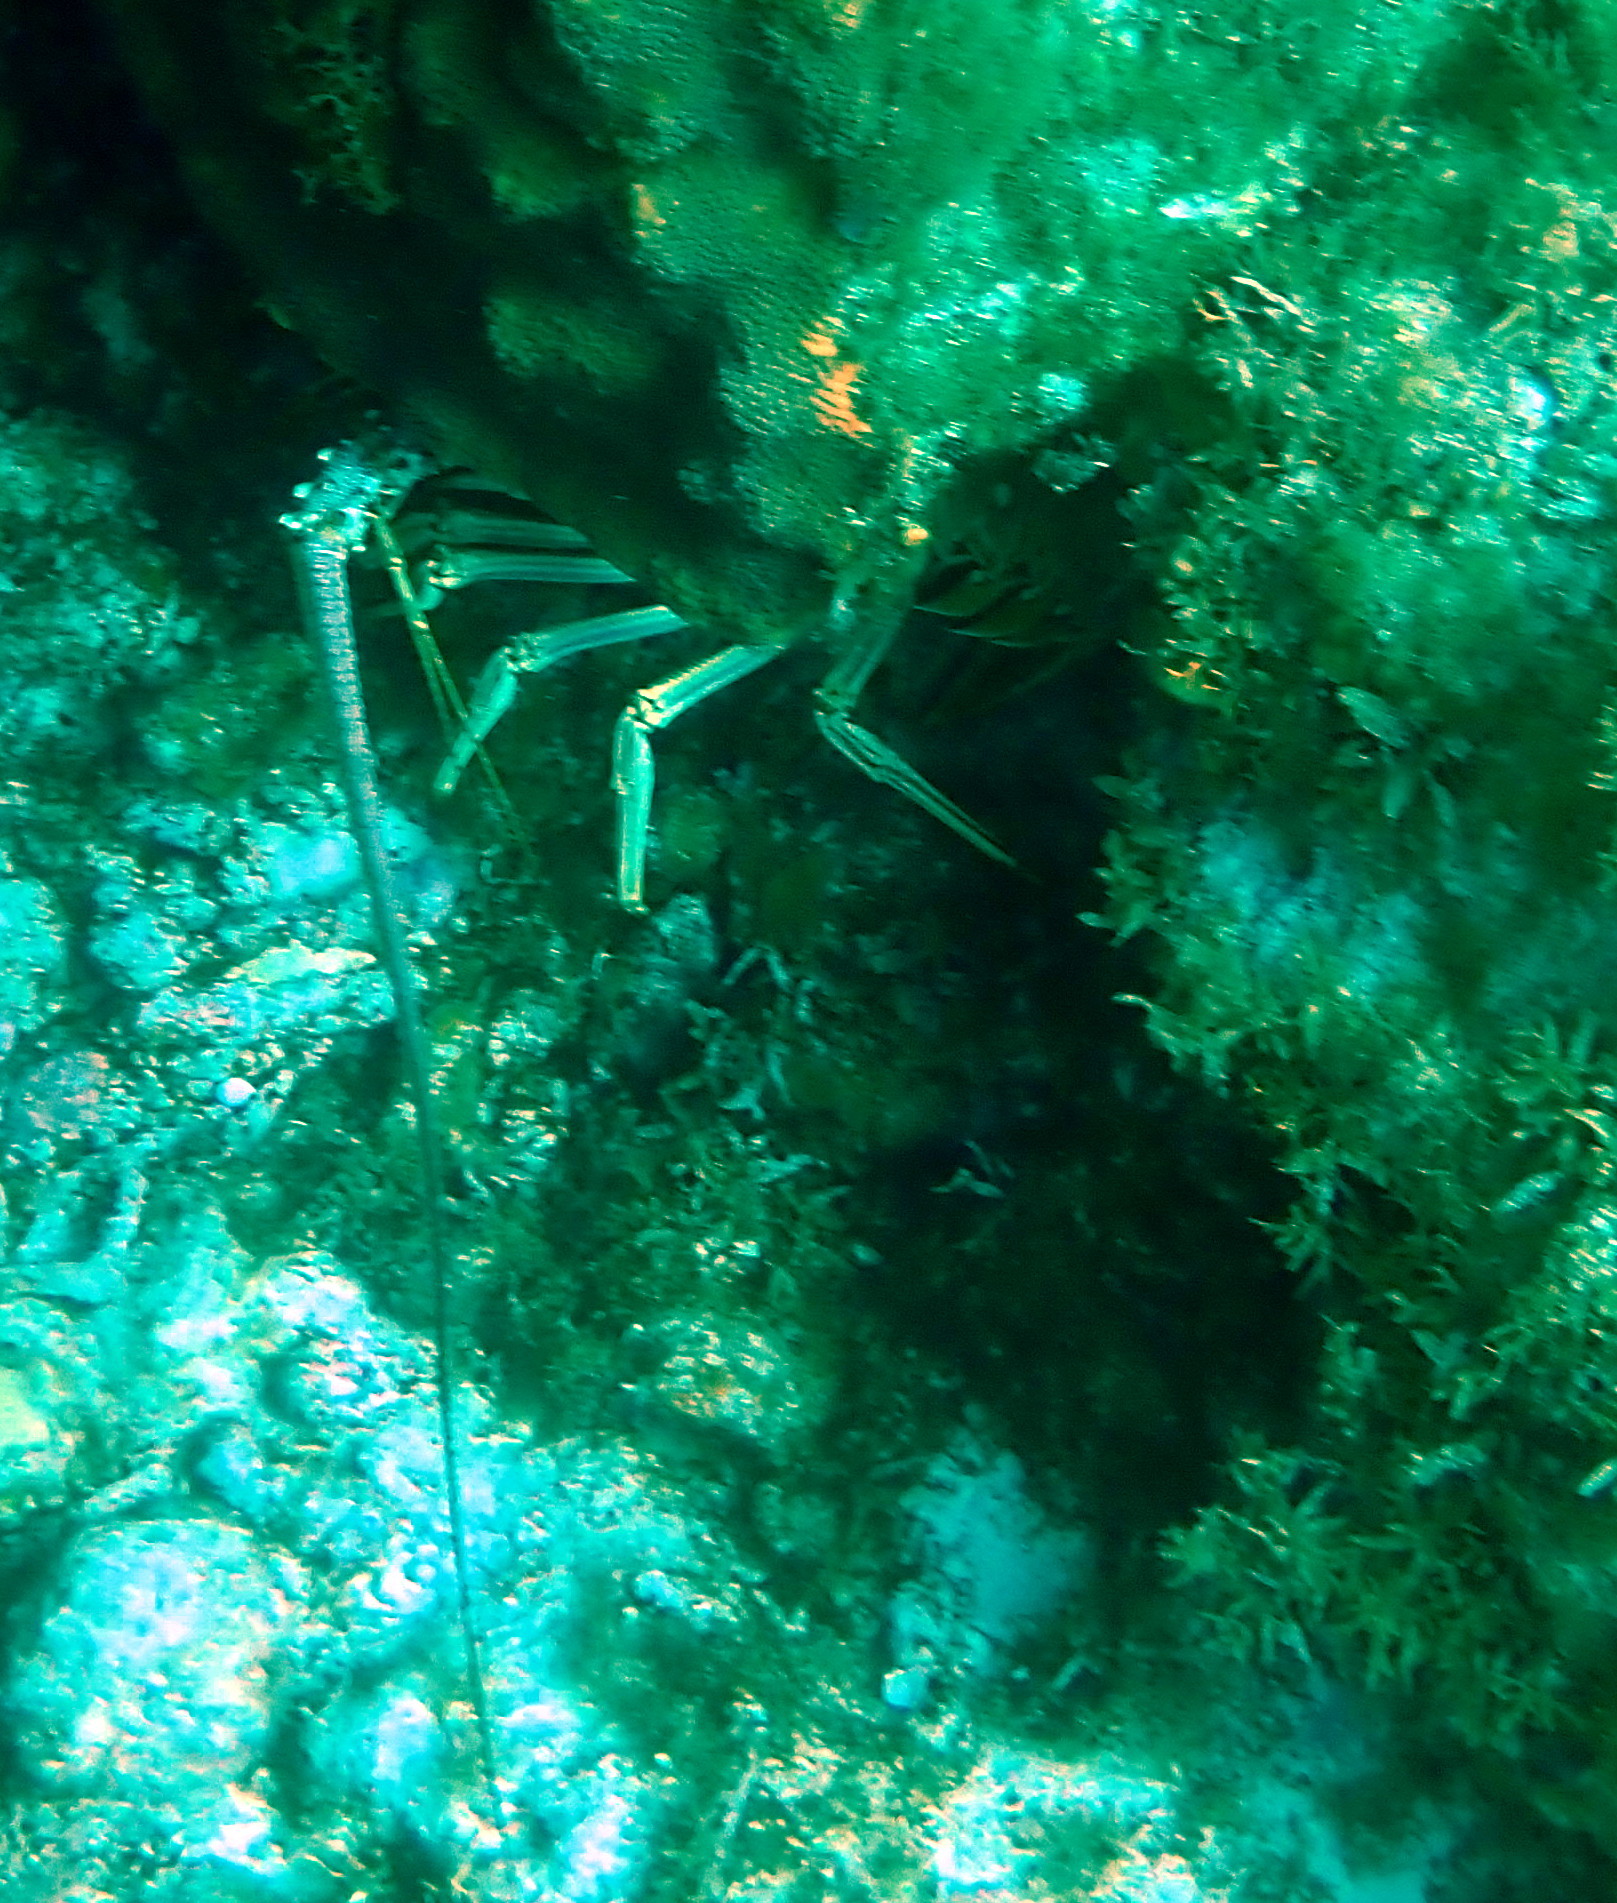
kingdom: Animalia
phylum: Arthropoda
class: Malacostraca
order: Decapoda
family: Palinuridae
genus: Panulirus
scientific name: Panulirus argus
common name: Caribbean spiny lobster
